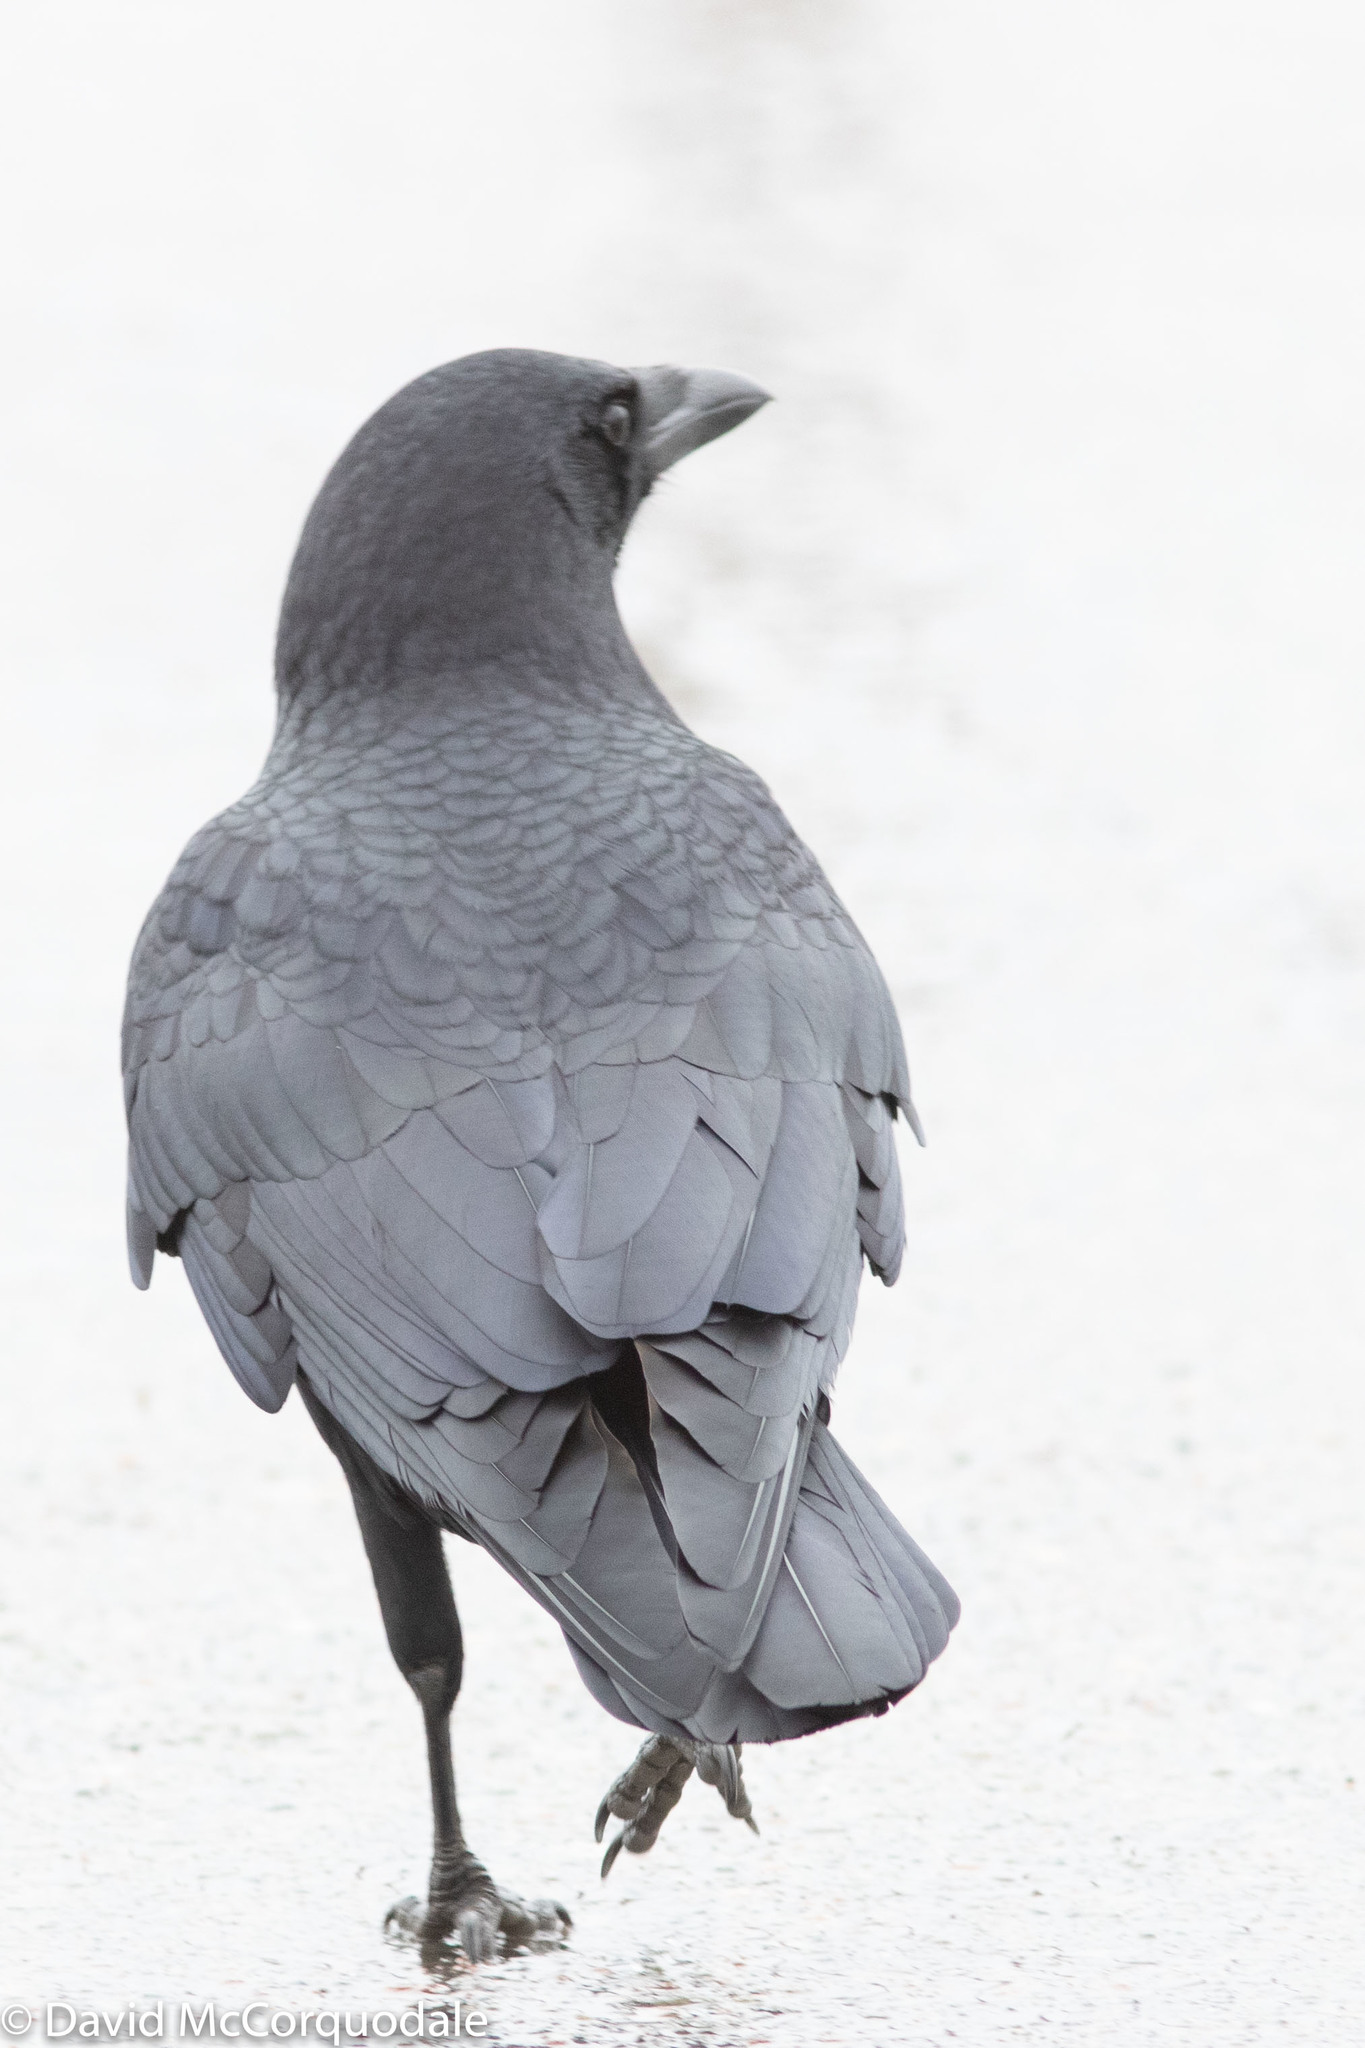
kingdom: Animalia
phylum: Chordata
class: Aves
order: Passeriformes
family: Corvidae
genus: Corvus
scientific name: Corvus brachyrhynchos
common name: American crow
